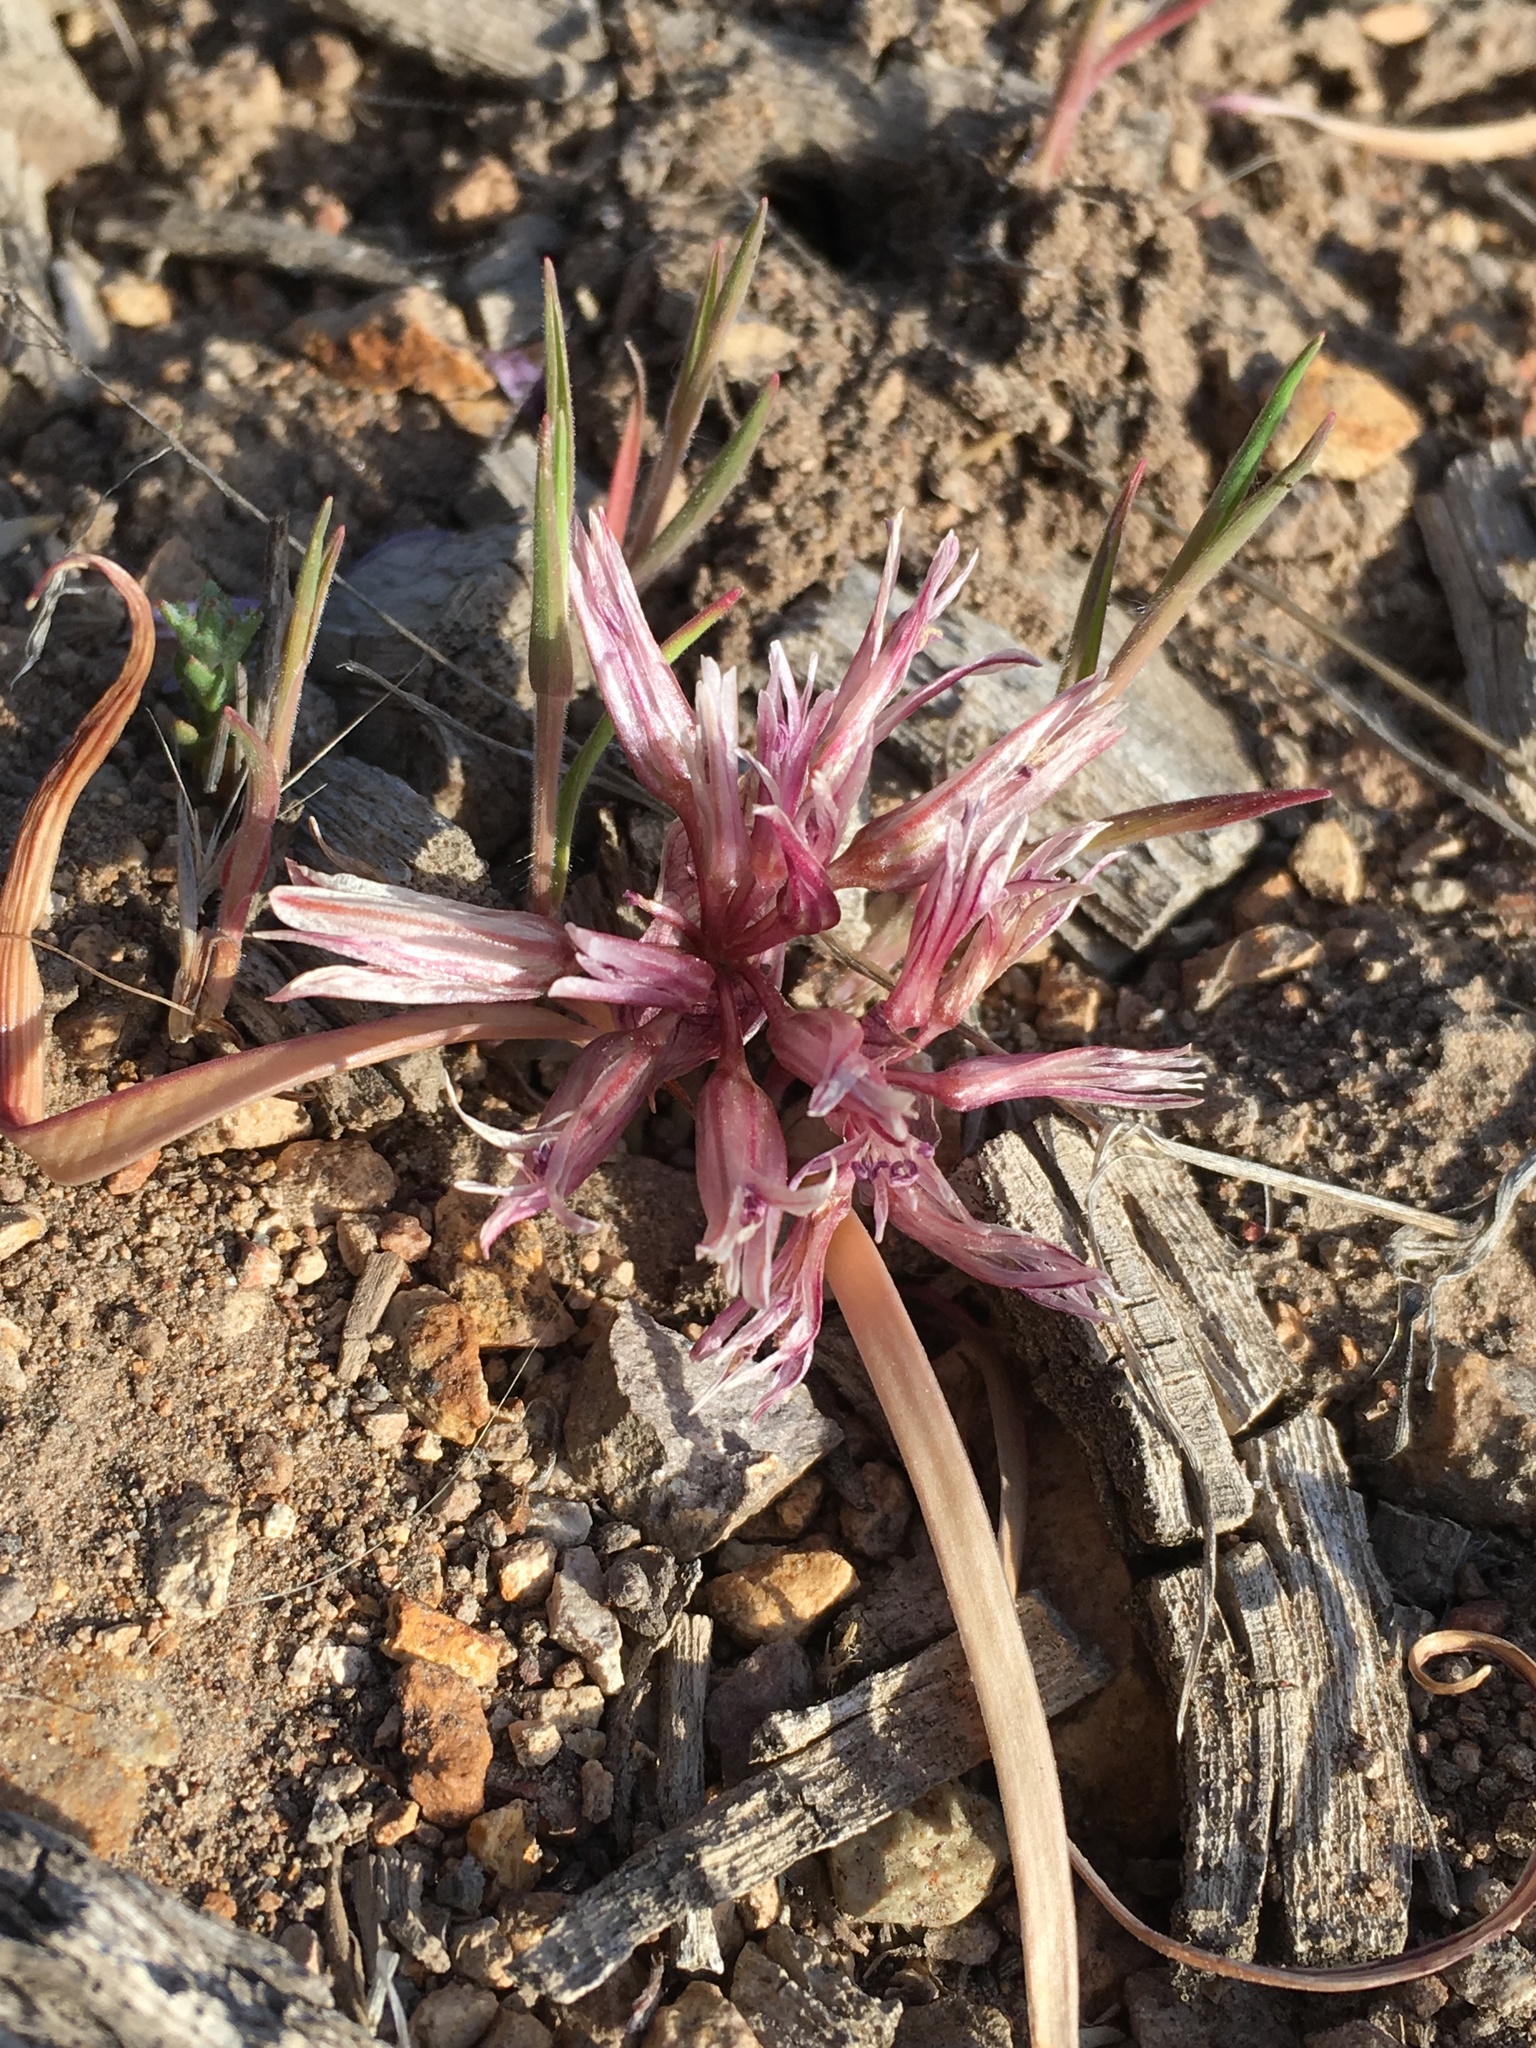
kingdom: Plantae
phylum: Tracheophyta
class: Liliopsida
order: Asparagales
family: Amaryllidaceae
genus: Allium
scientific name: Allium parvum
